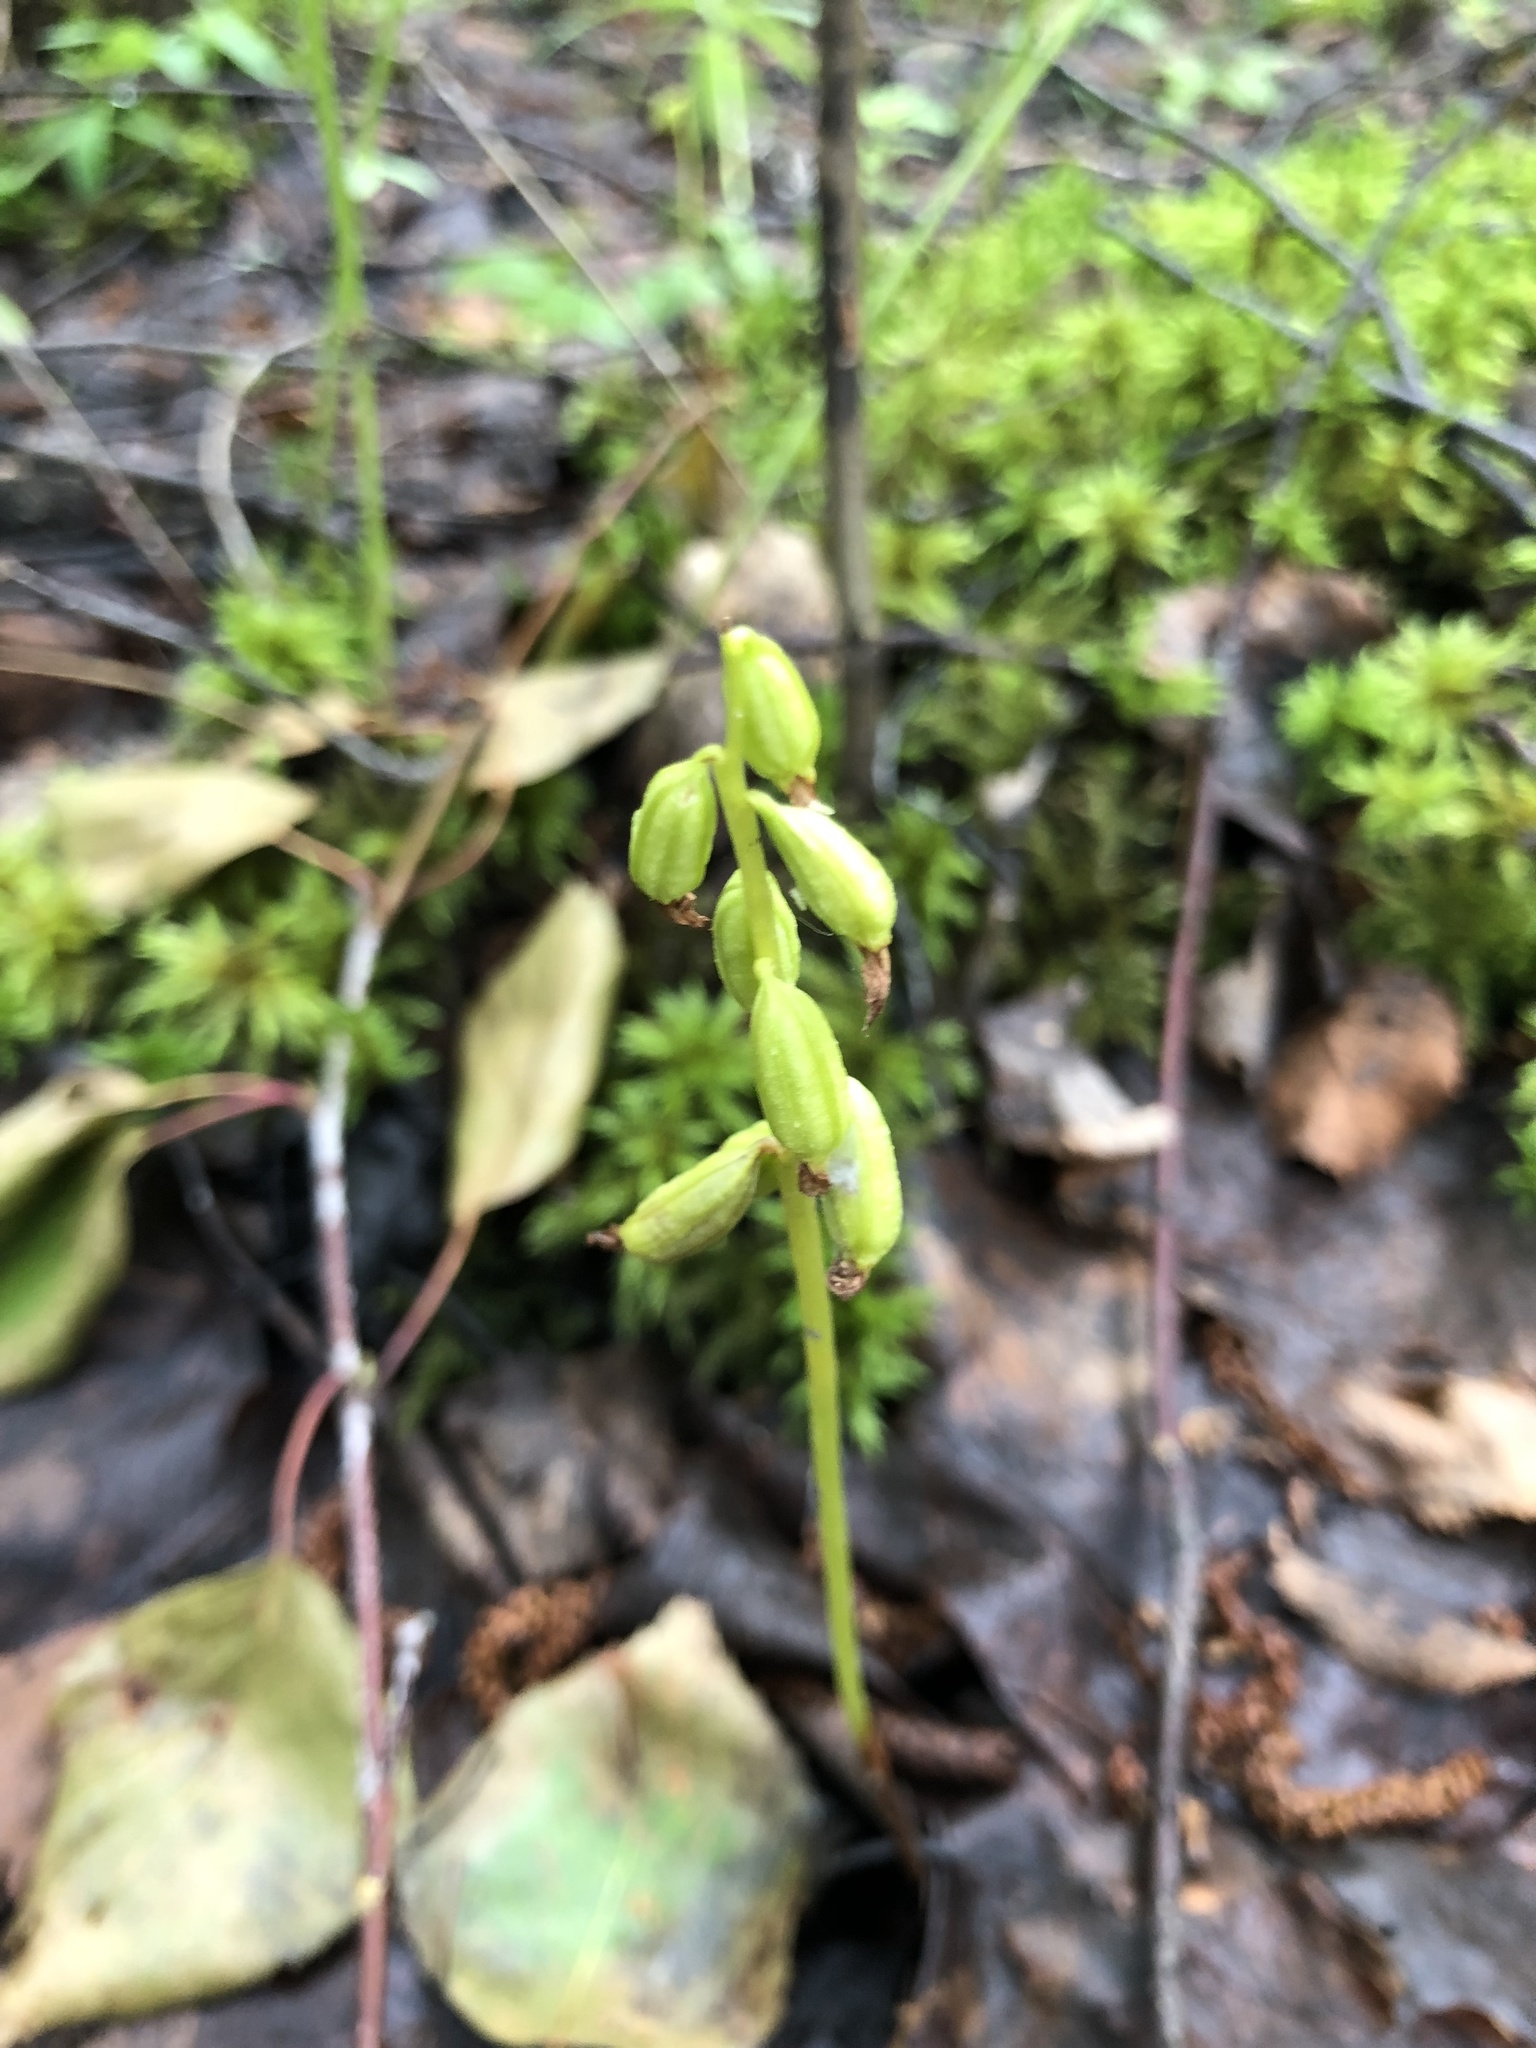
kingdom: Plantae
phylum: Tracheophyta
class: Liliopsida
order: Asparagales
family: Orchidaceae
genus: Corallorhiza
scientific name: Corallorhiza trifida
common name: Yellow coralroot
